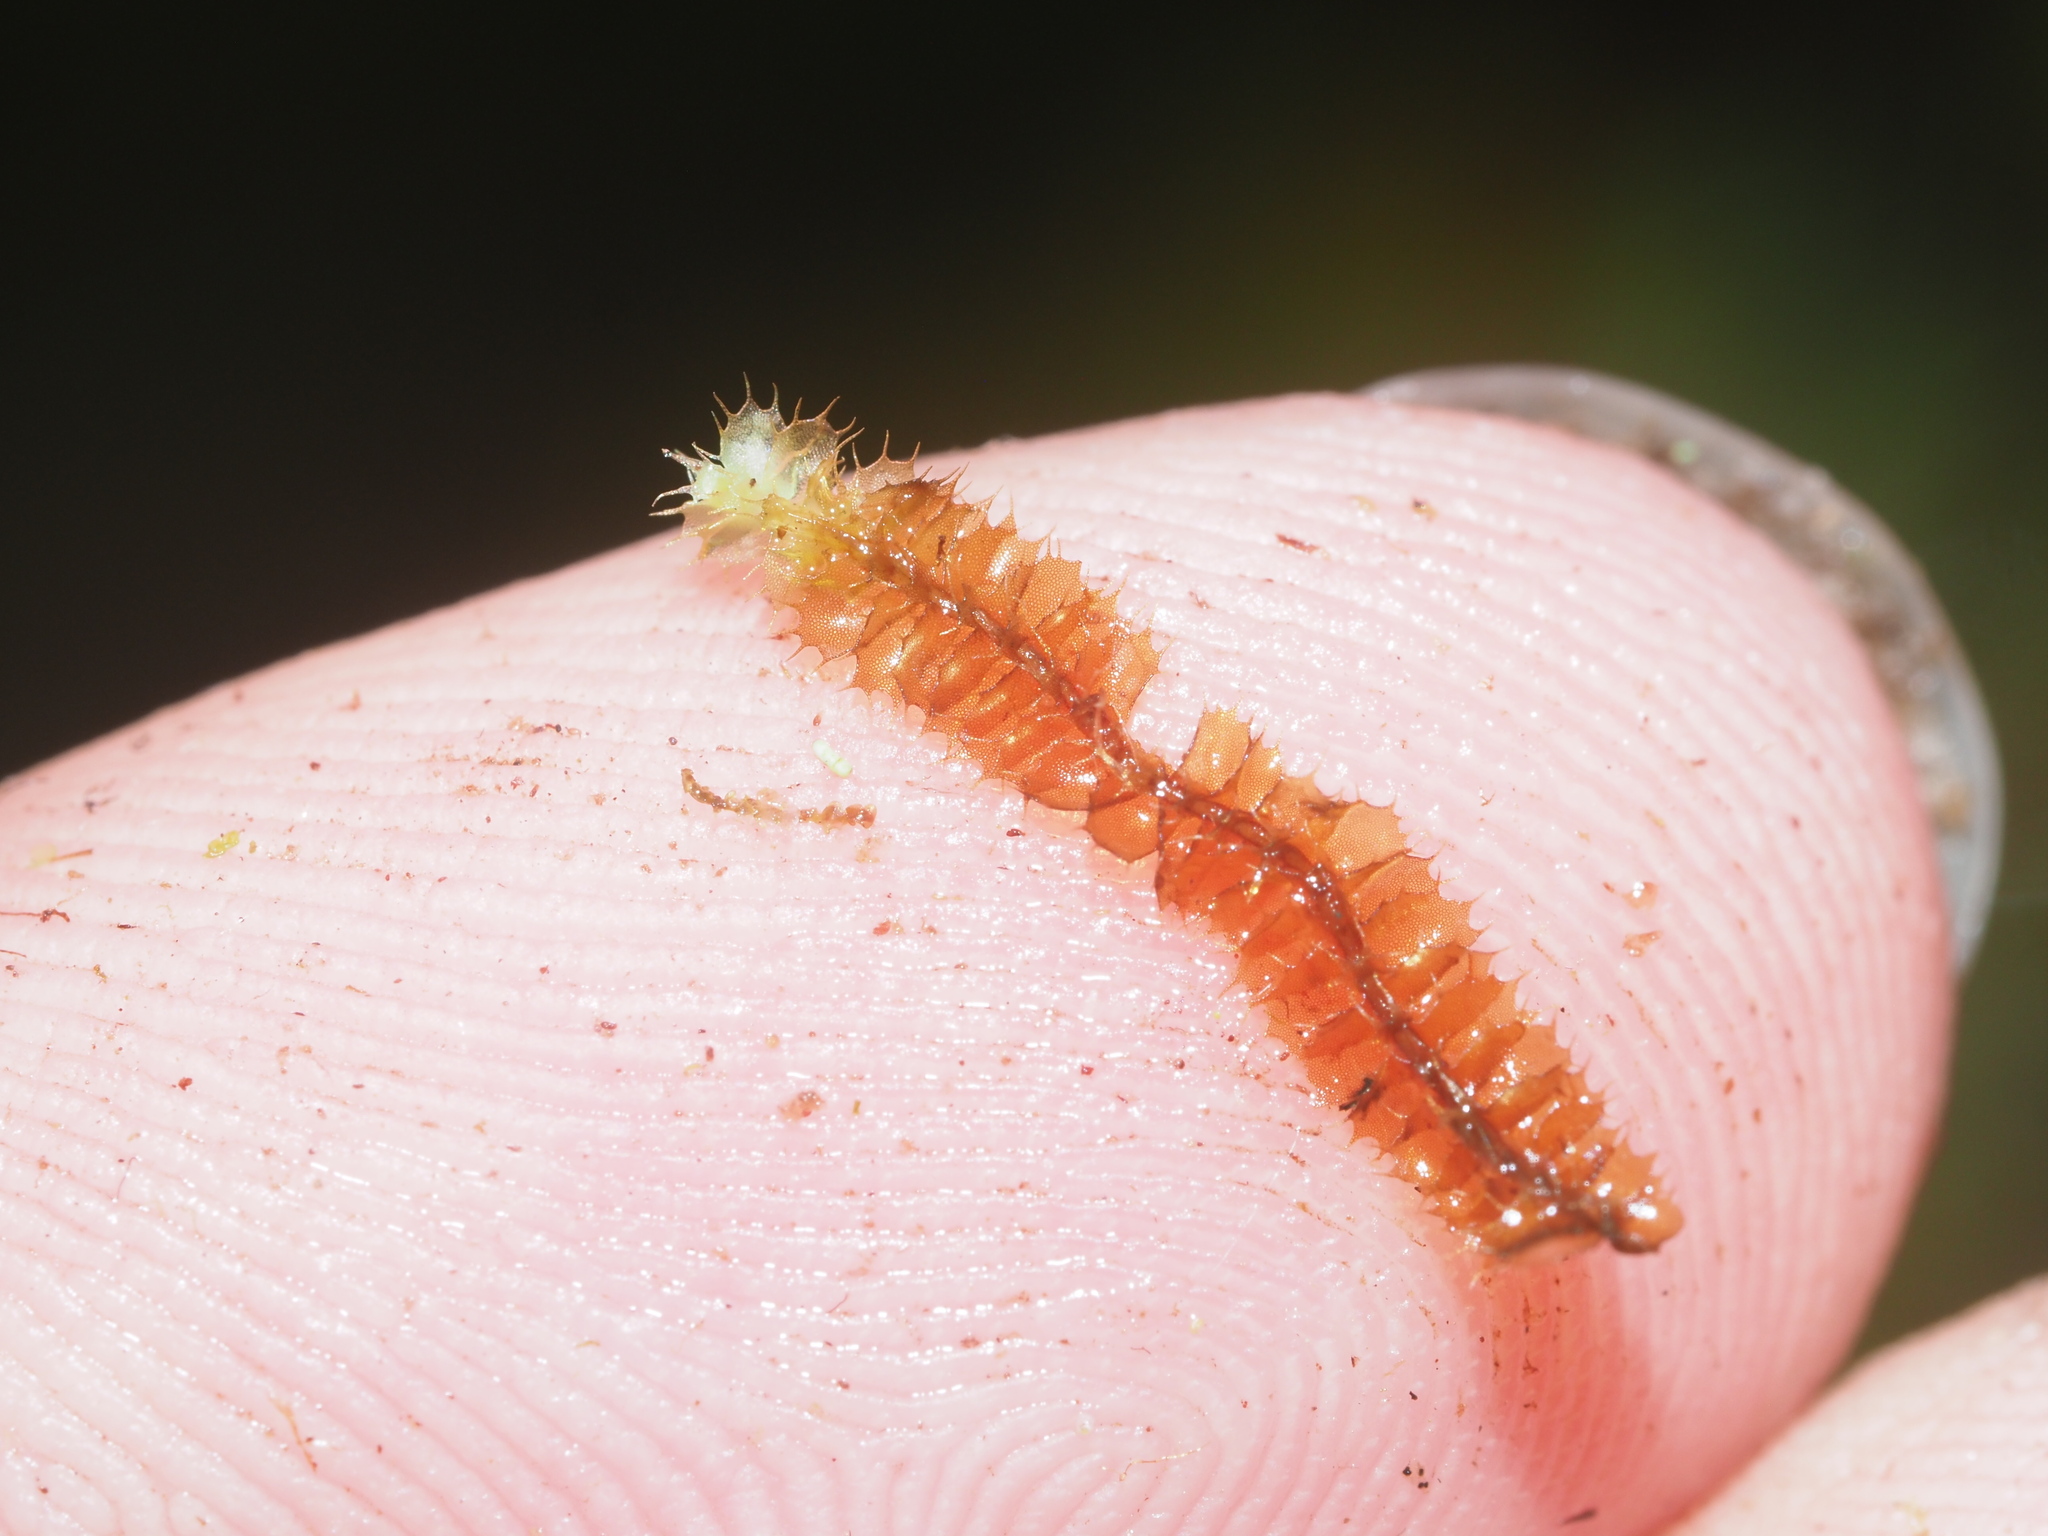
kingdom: Plantae
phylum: Marchantiophyta
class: Jungermanniopsida
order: Jungermanniales
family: Lophocoleaceae
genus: Leptoscyphus
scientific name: Leptoscyphus
